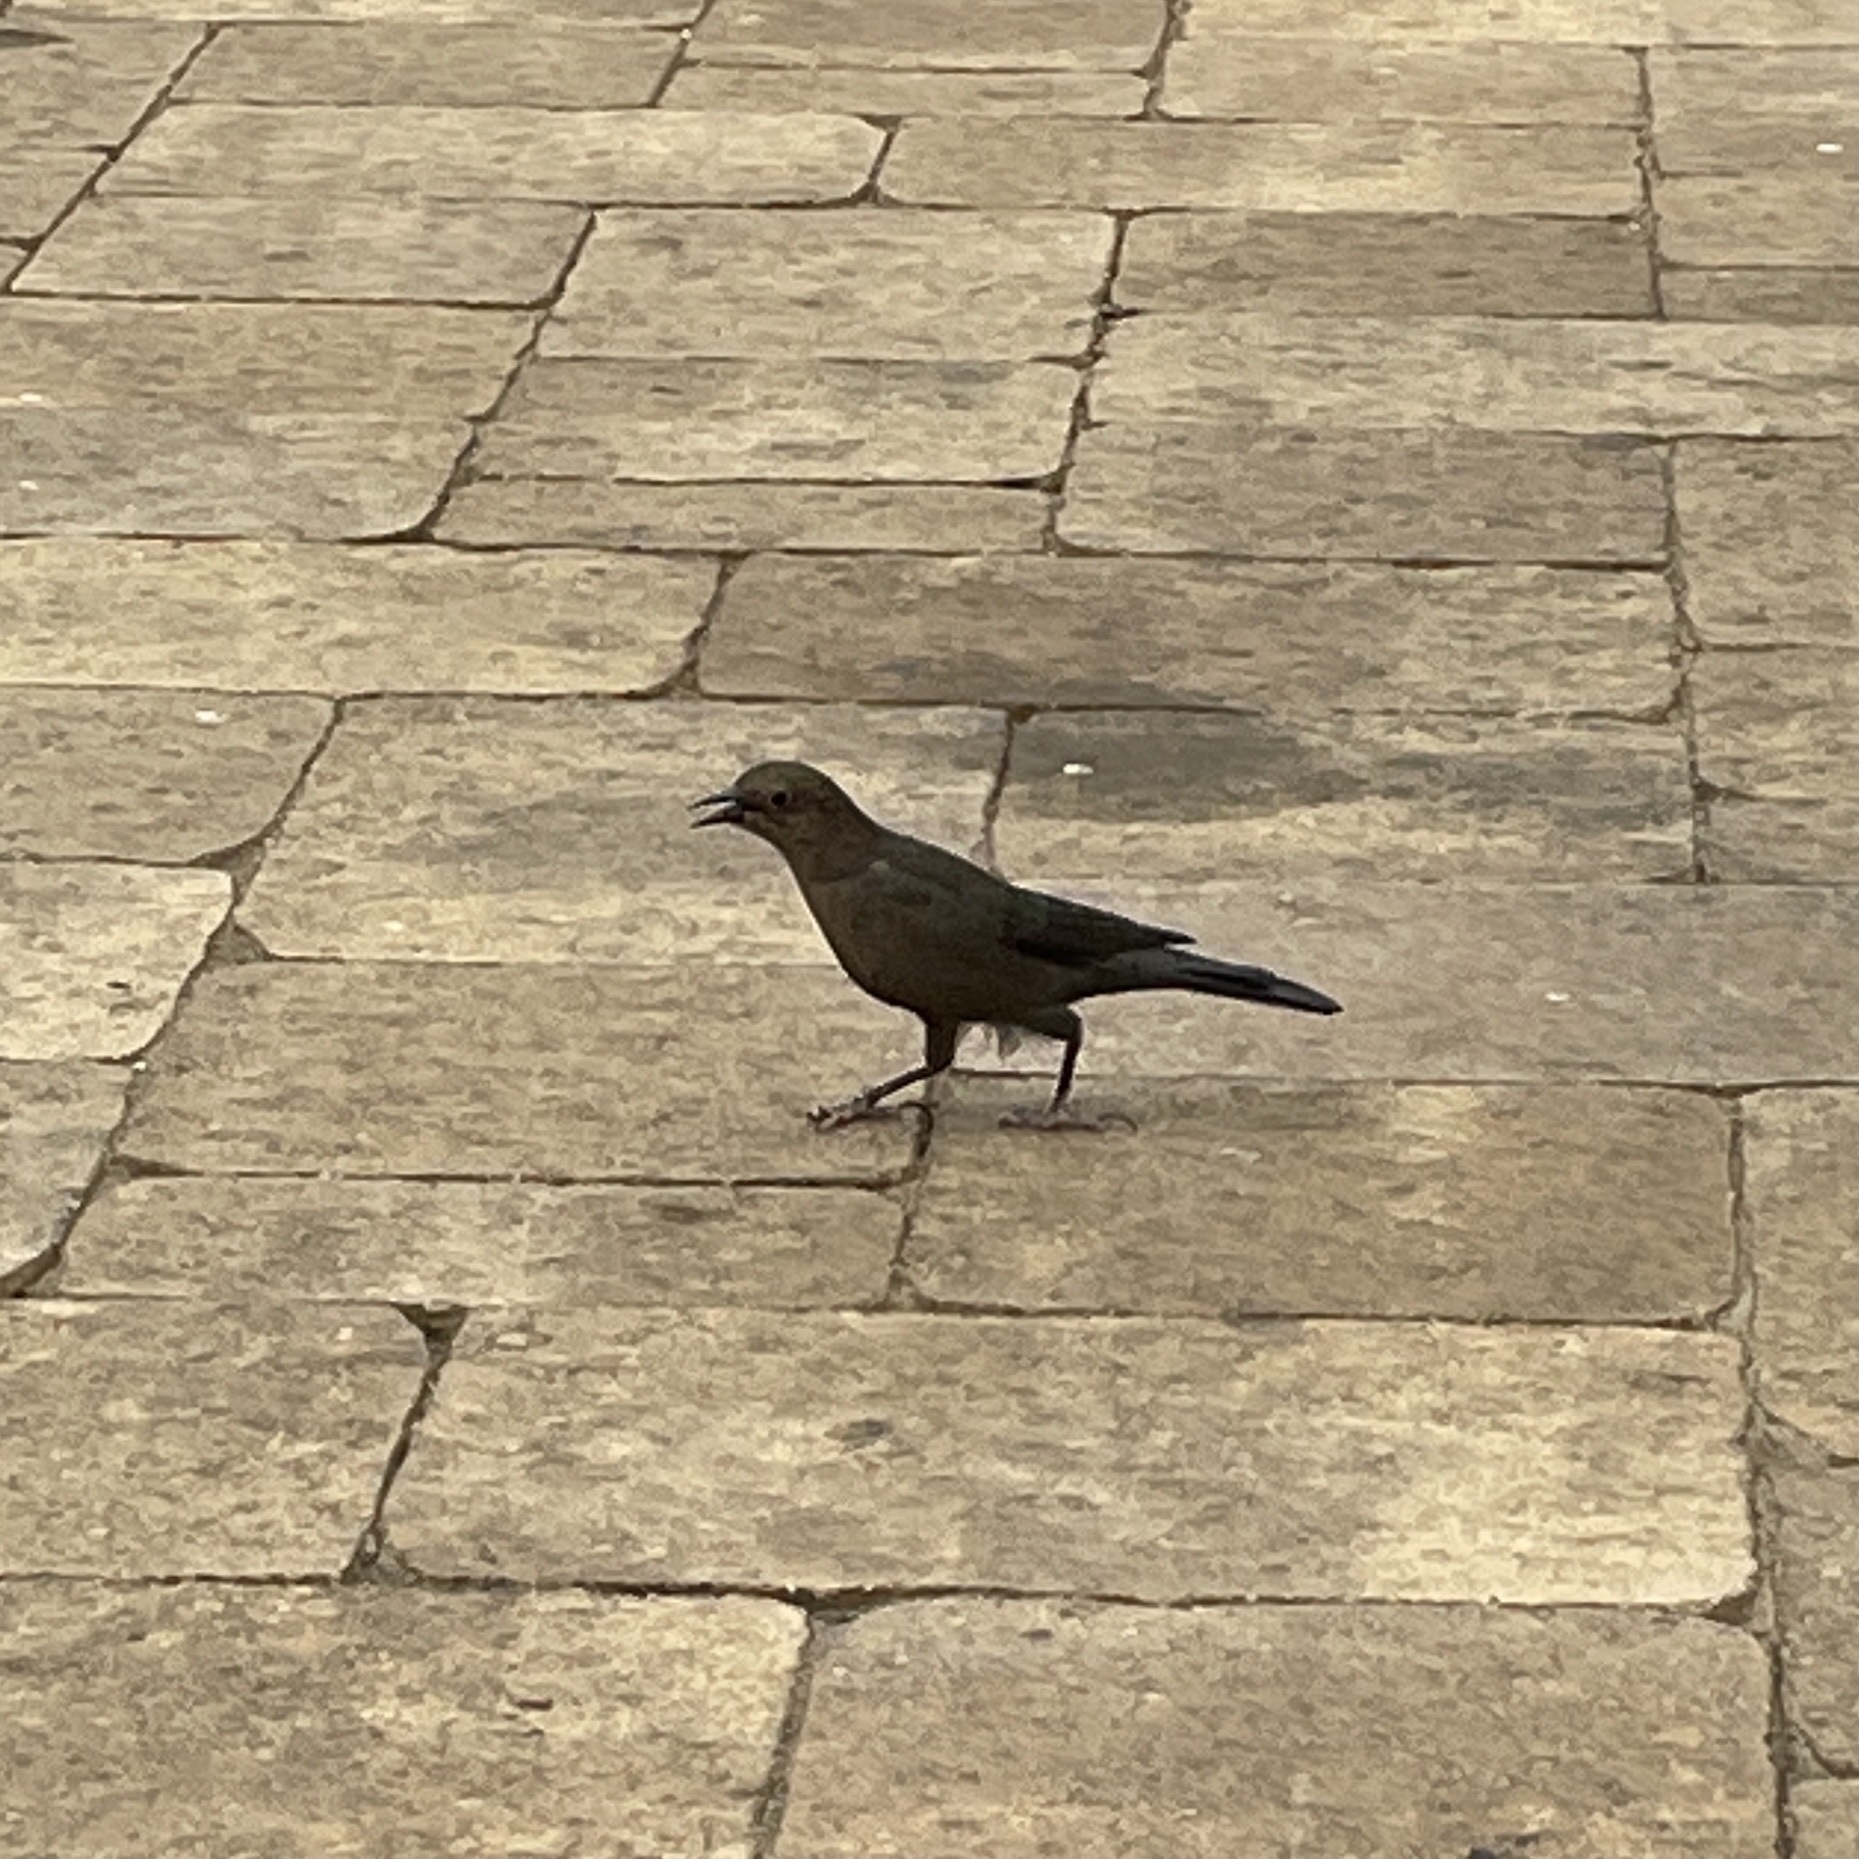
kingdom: Animalia
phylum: Chordata
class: Aves
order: Passeriformes
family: Icteridae
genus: Euphagus
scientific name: Euphagus cyanocephalus
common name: Brewer's blackbird
